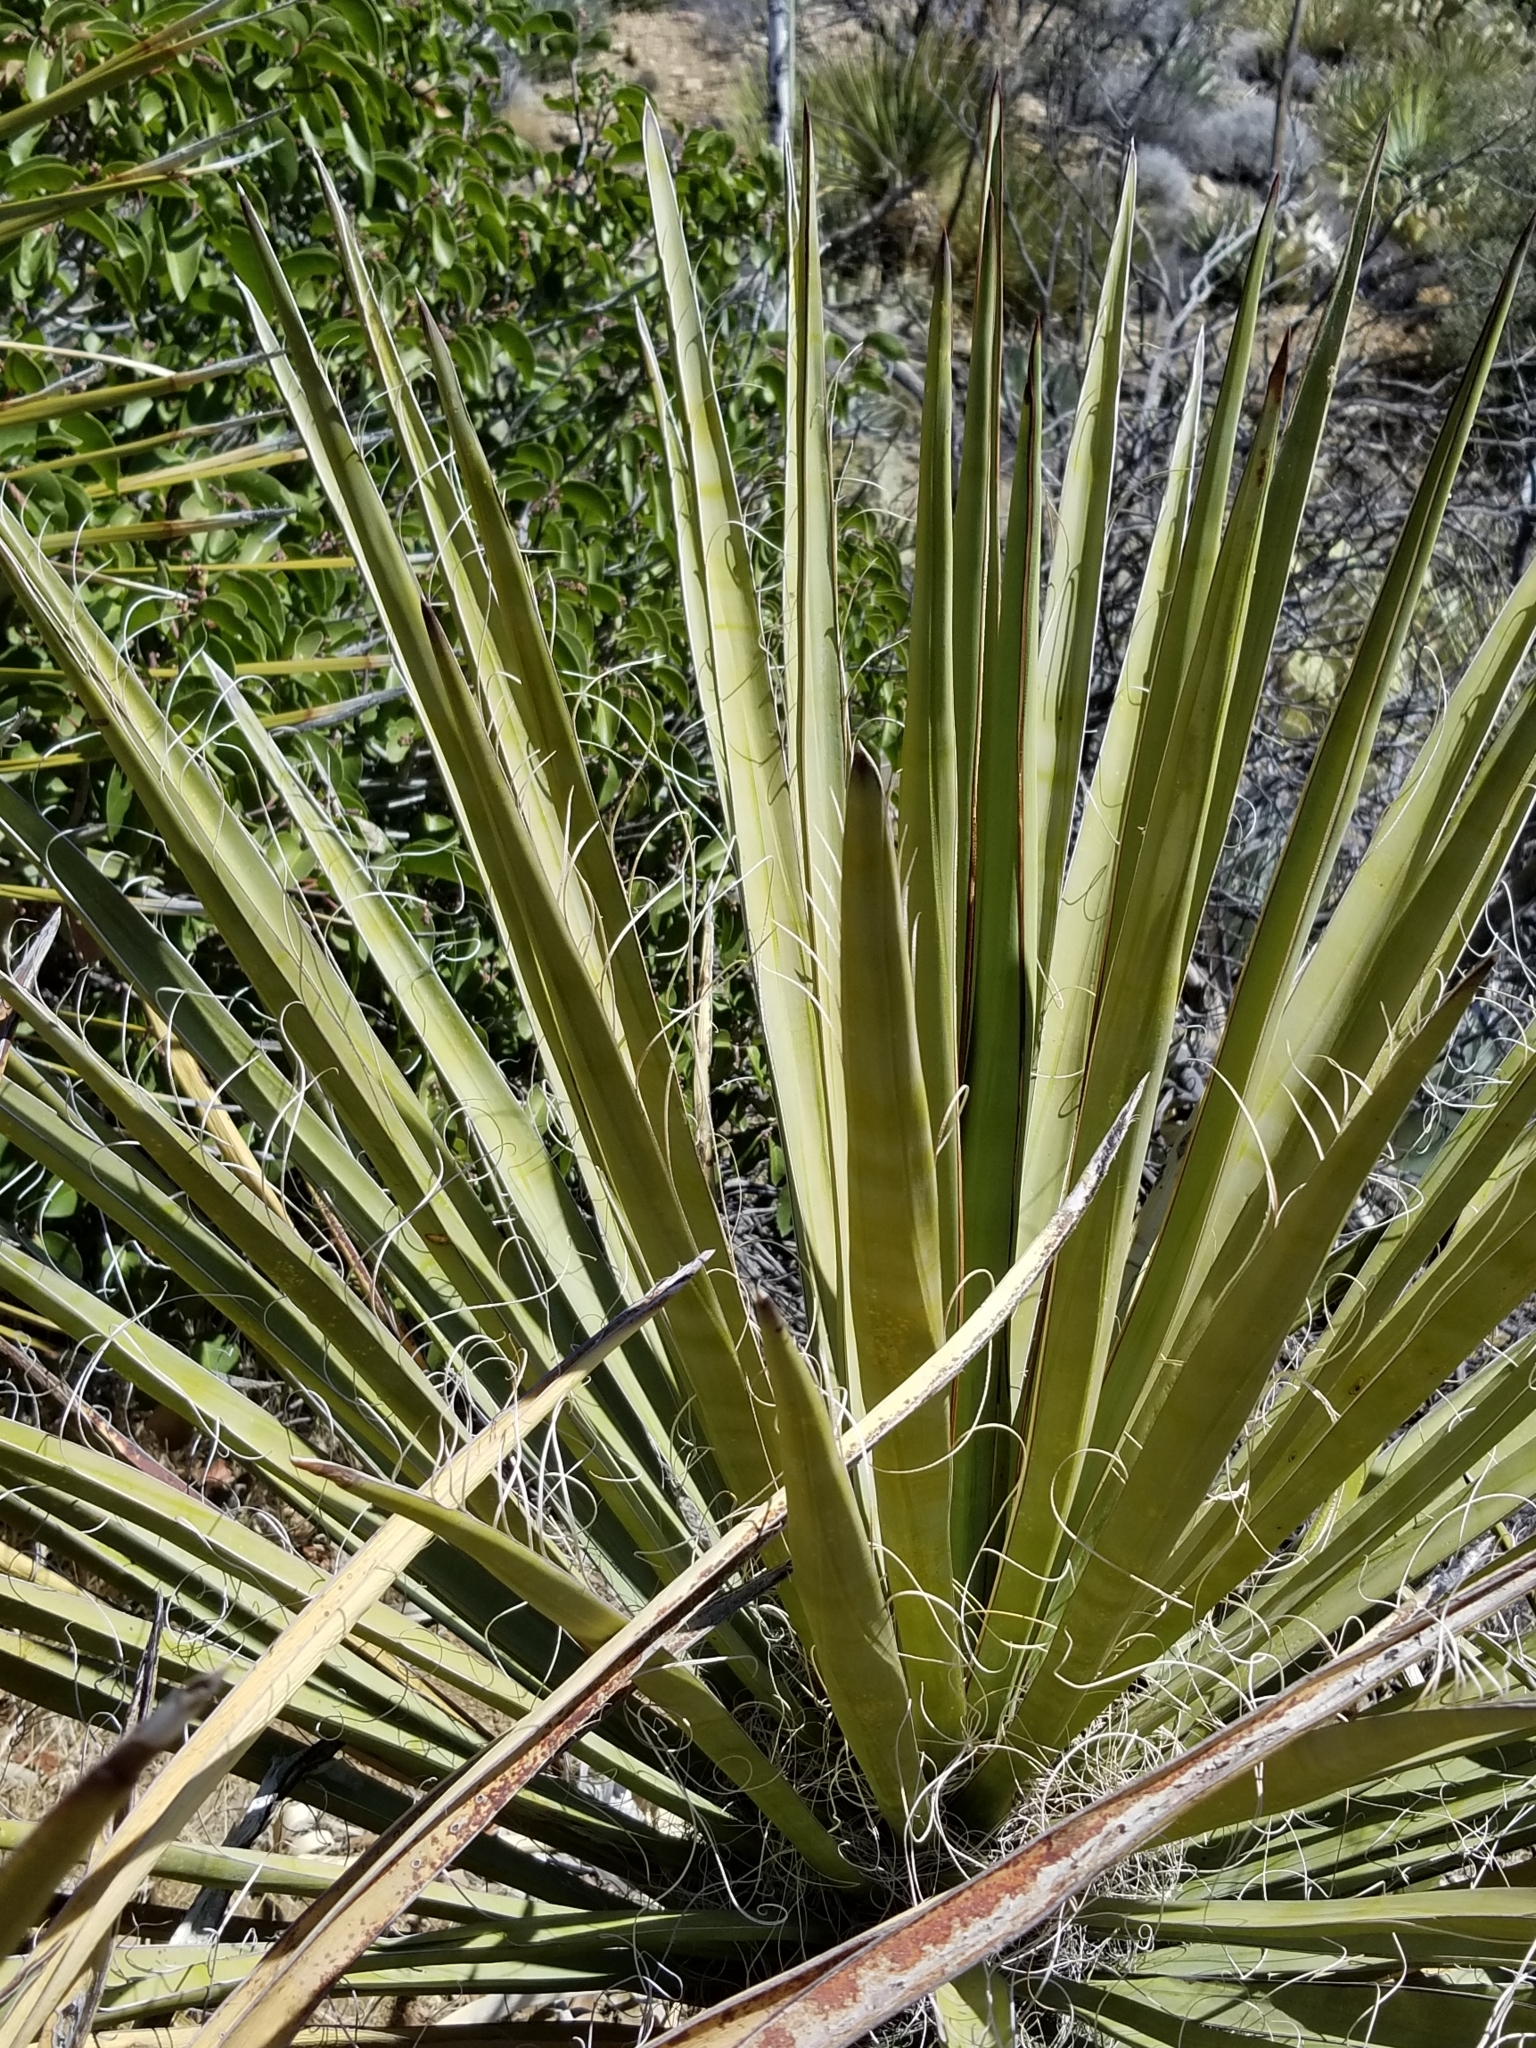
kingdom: Plantae
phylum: Tracheophyta
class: Liliopsida
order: Asparagales
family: Asparagaceae
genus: Yucca
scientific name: Yucca schidigera
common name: Mojave yucca
